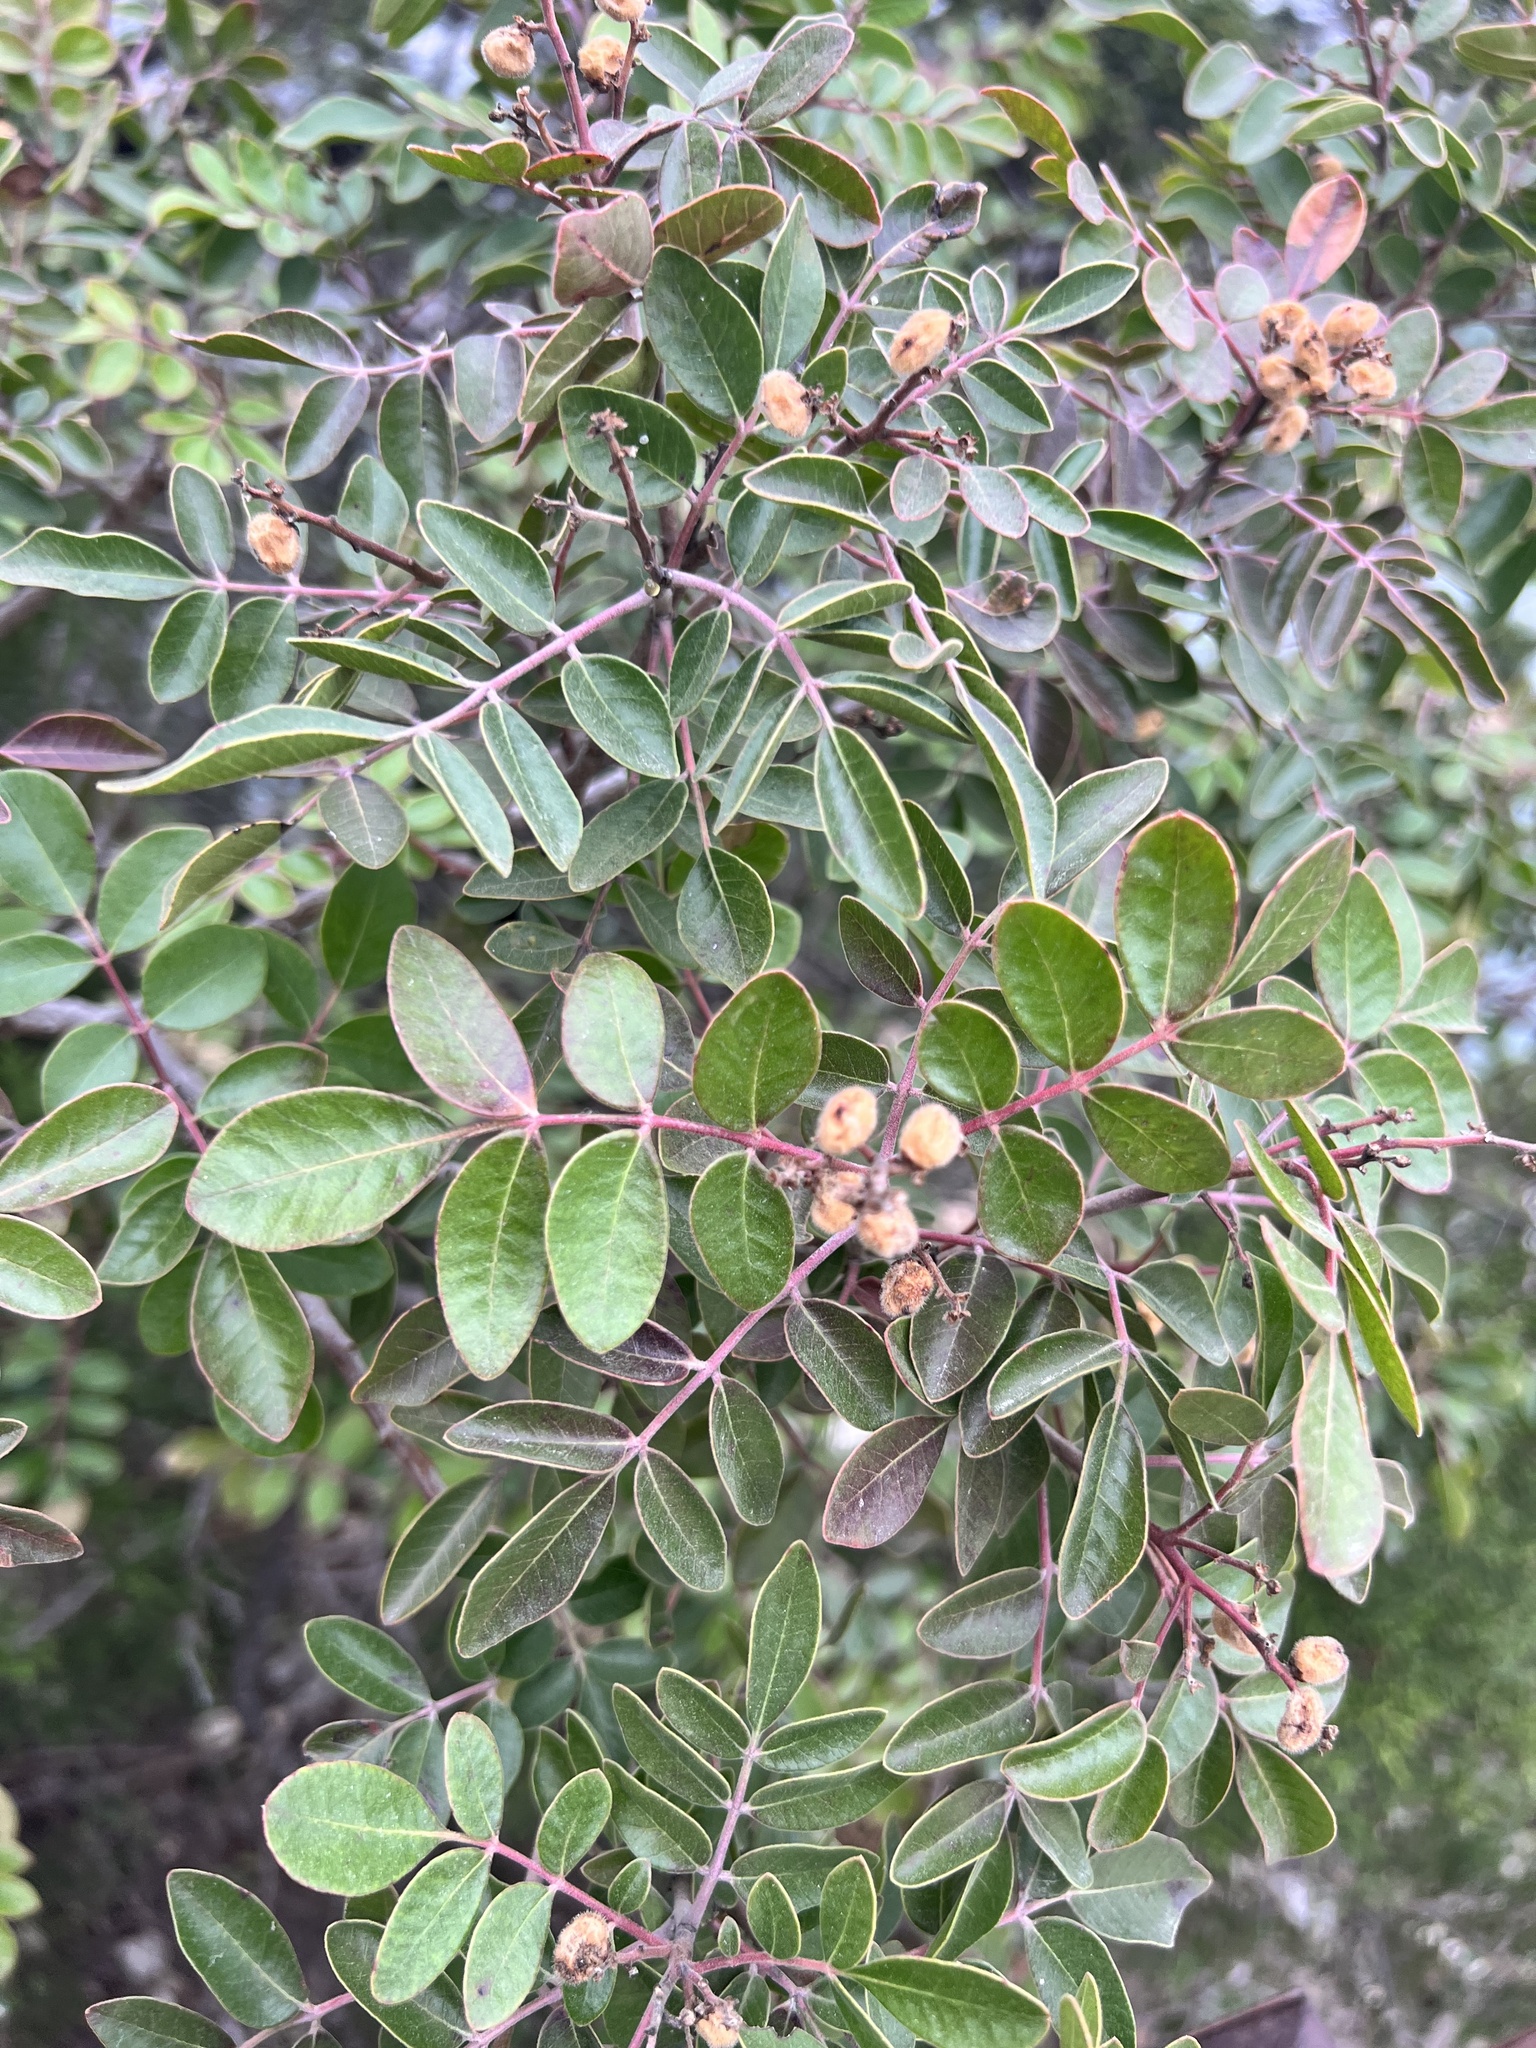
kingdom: Plantae
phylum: Tracheophyta
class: Magnoliopsida
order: Sapindales
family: Anacardiaceae
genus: Rhus
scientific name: Rhus virens
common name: Evergreen sumac
